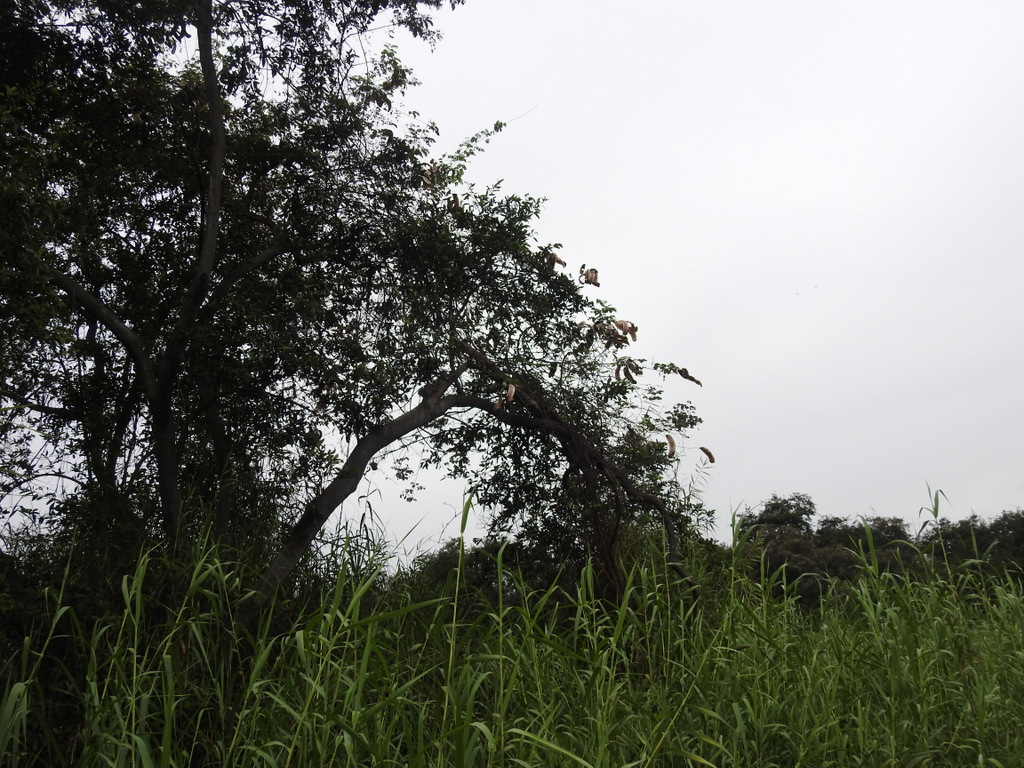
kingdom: Plantae
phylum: Tracheophyta
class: Magnoliopsida
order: Fabales
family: Fabaceae
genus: Entada
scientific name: Entada polystachya
